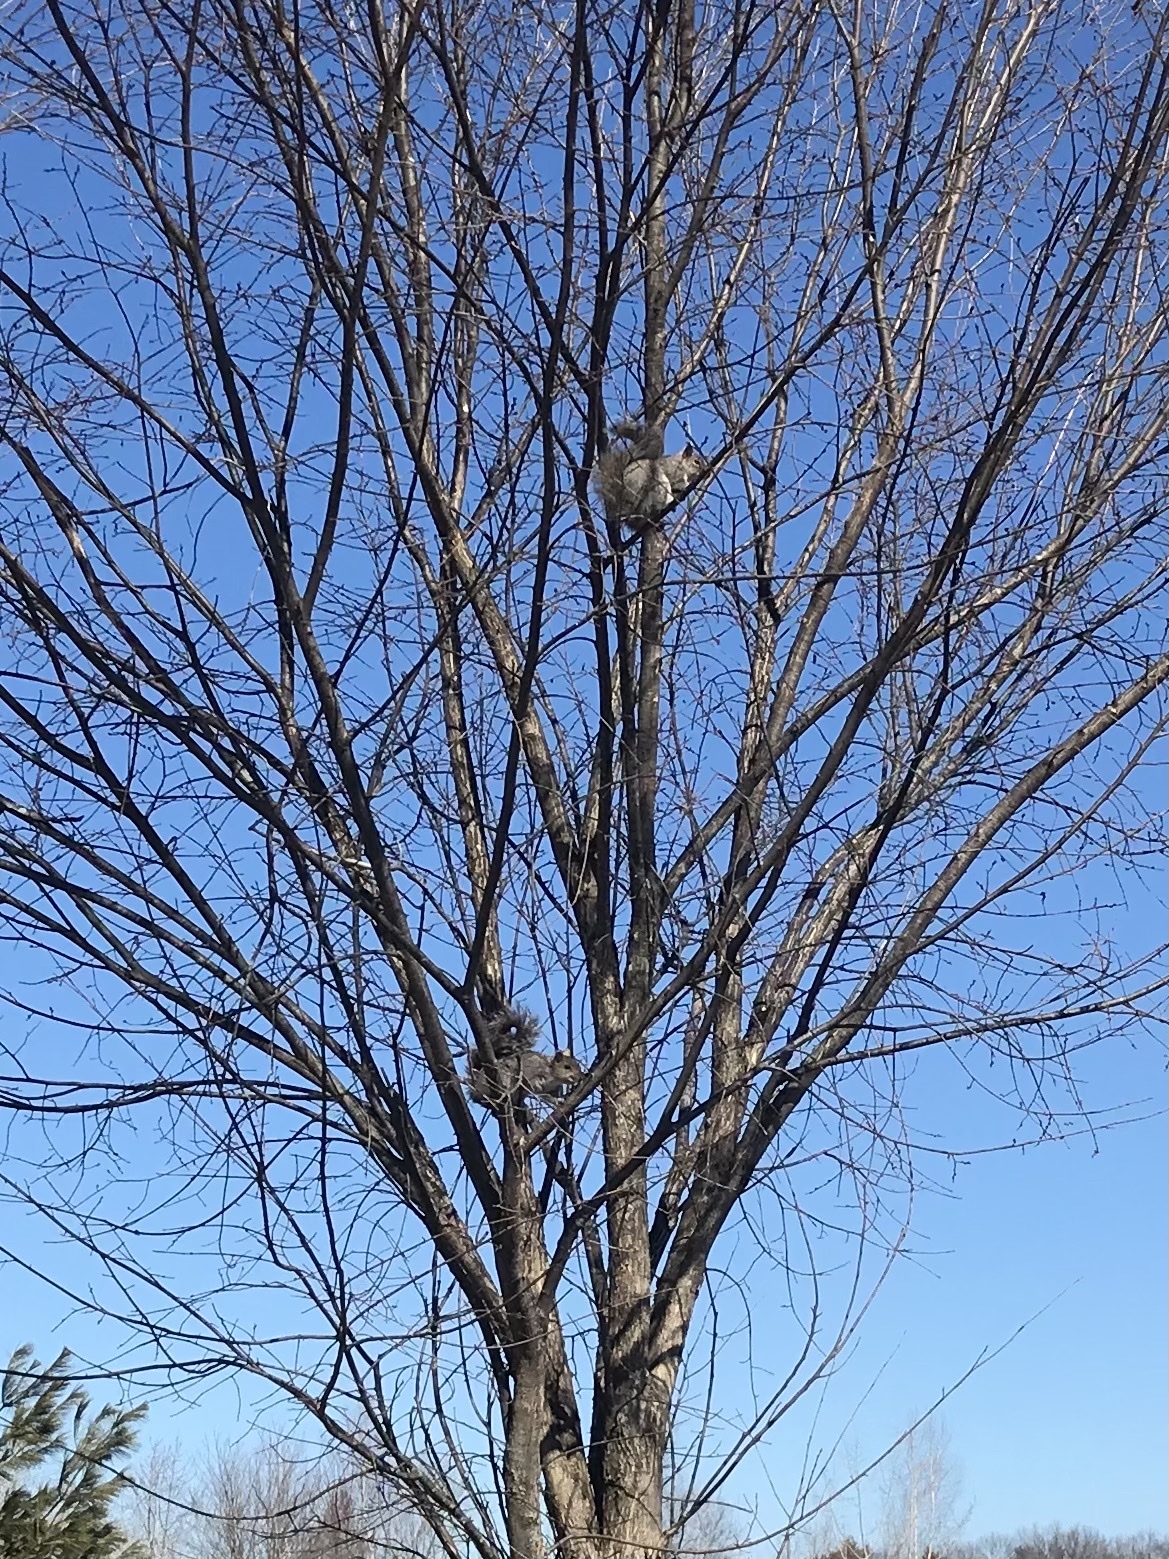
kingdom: Animalia
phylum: Chordata
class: Mammalia
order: Rodentia
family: Sciuridae
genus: Sciurus
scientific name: Sciurus carolinensis
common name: Eastern gray squirrel
